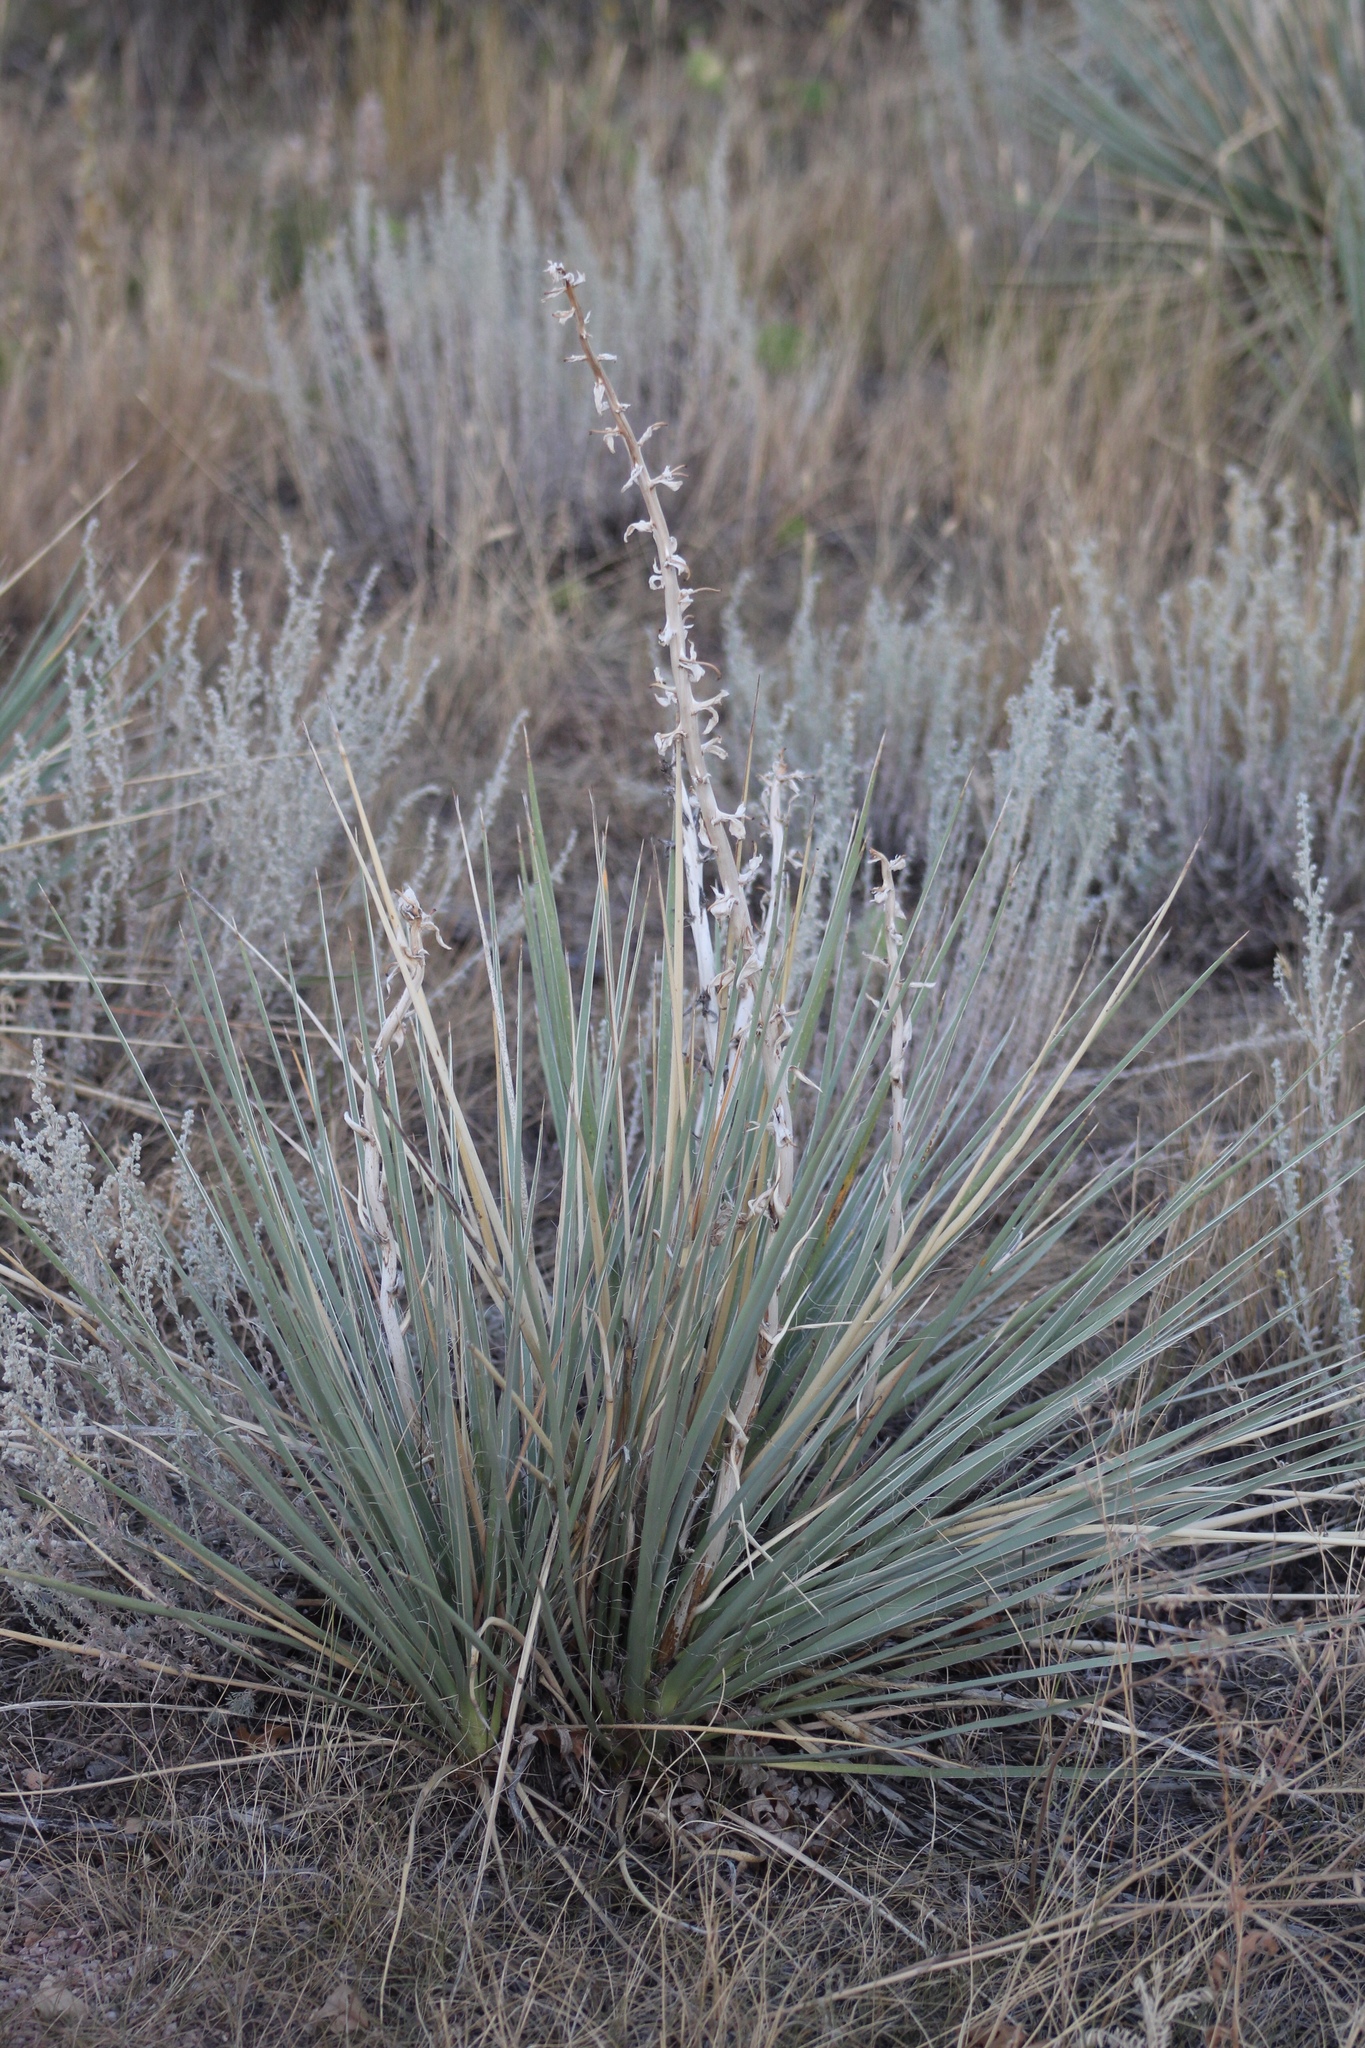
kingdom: Plantae
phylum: Tracheophyta
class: Liliopsida
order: Asparagales
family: Asparagaceae
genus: Yucca
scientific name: Yucca glauca
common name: Great plains yucca
